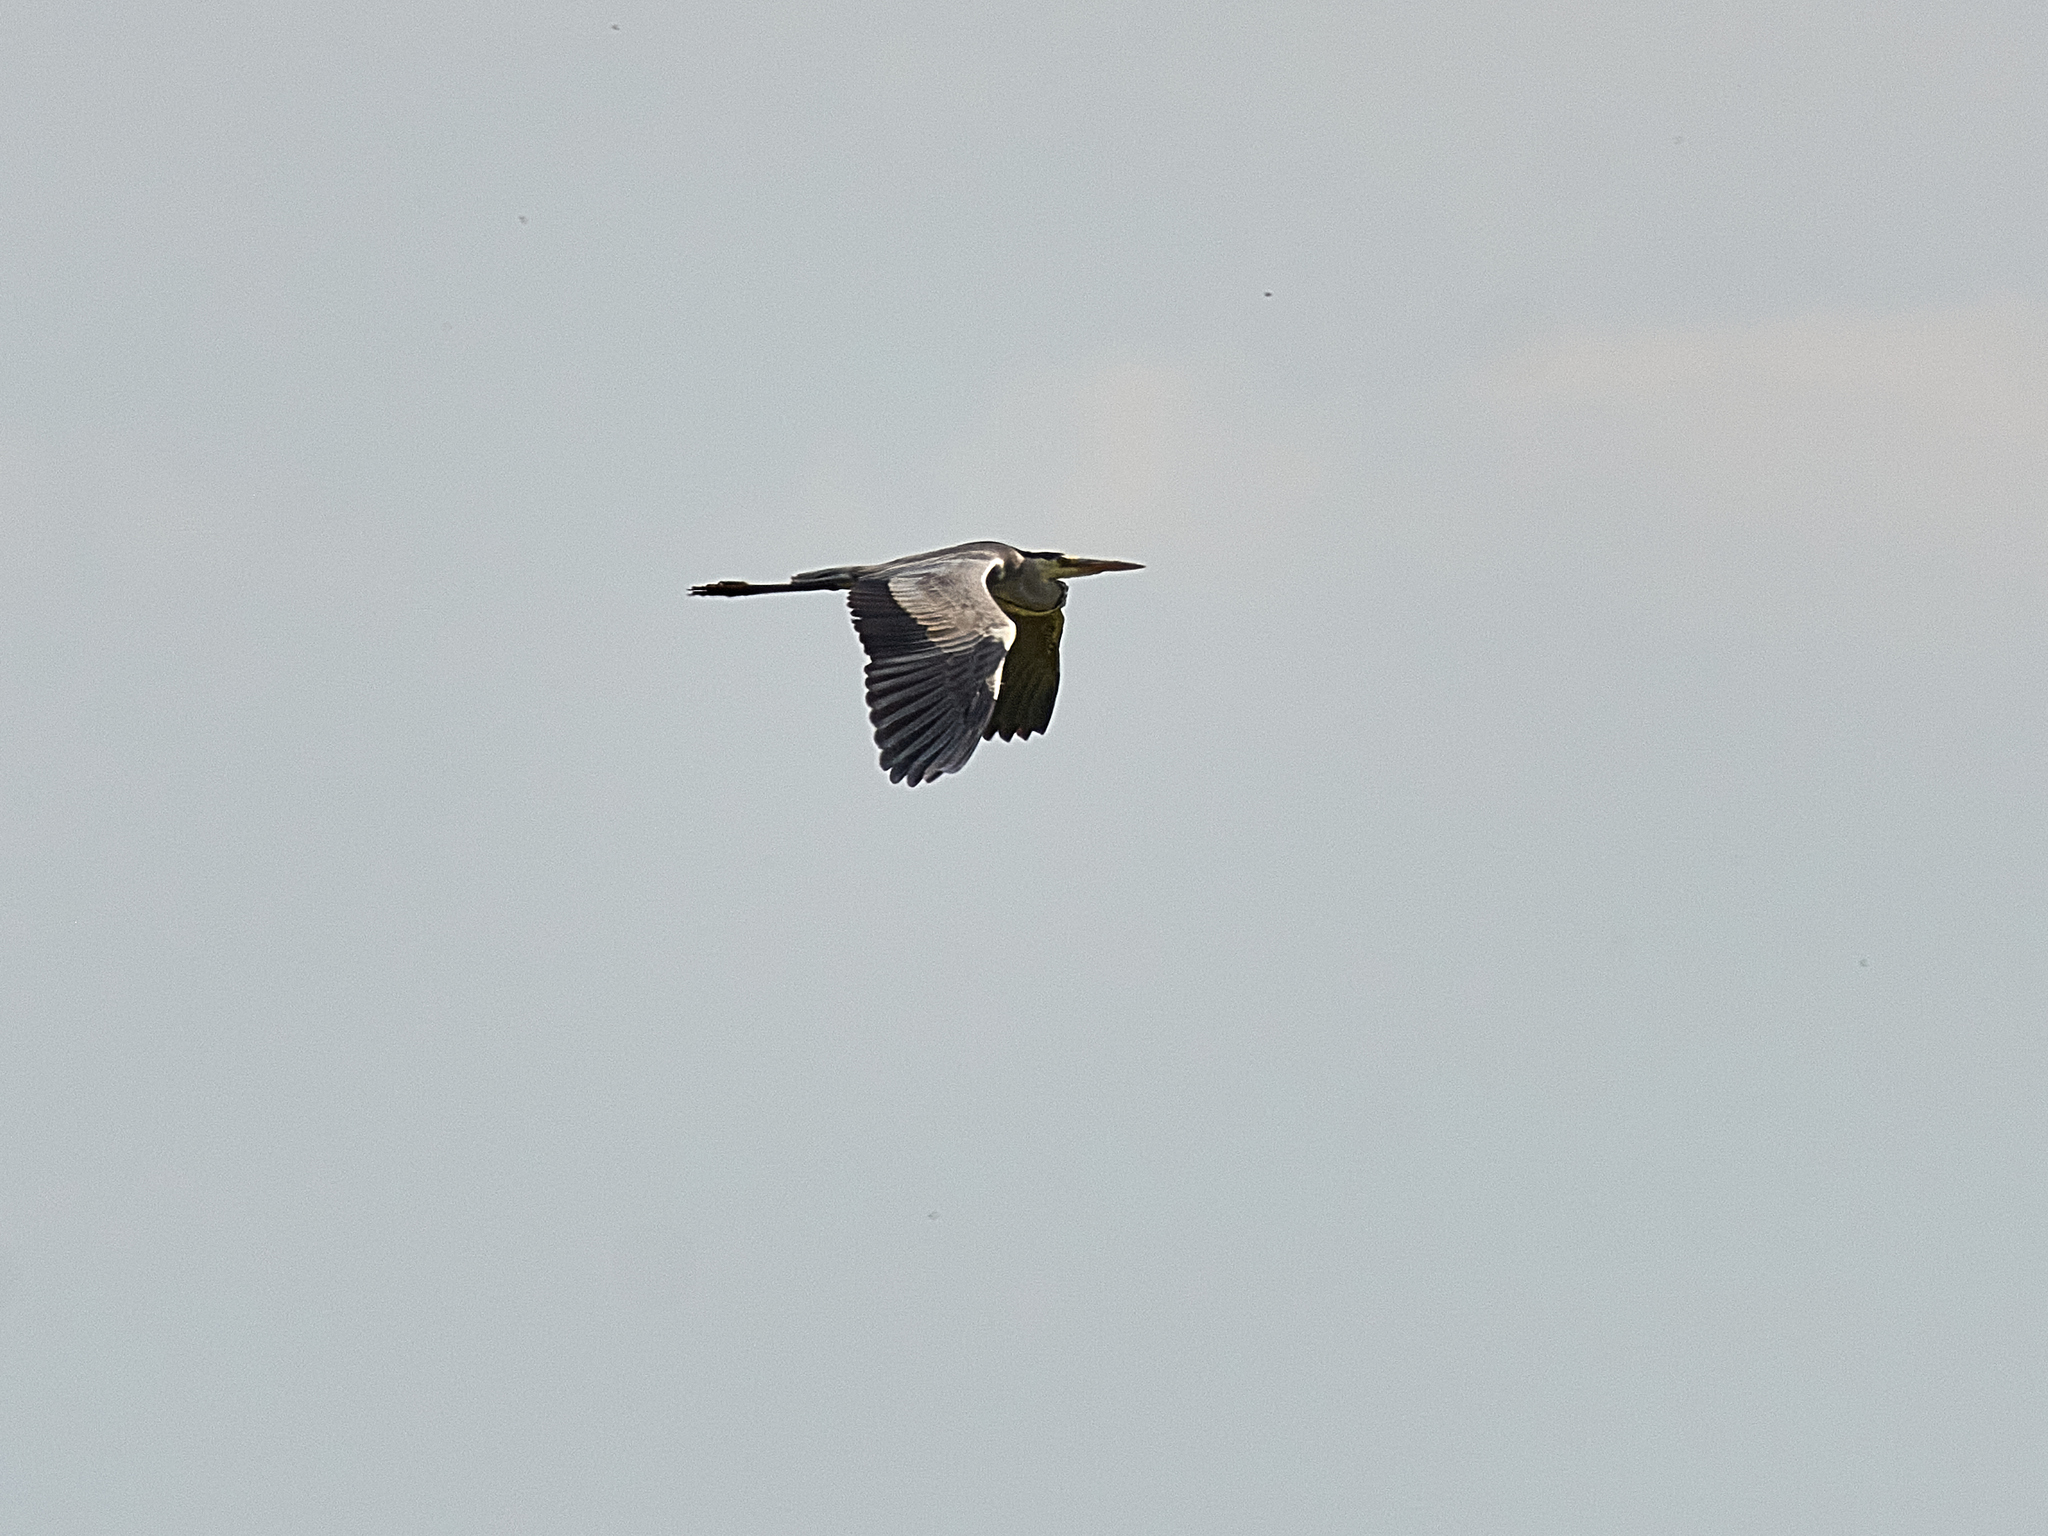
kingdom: Animalia
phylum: Chordata
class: Aves
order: Pelecaniformes
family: Ardeidae
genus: Ardea
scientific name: Ardea cinerea
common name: Grey heron
